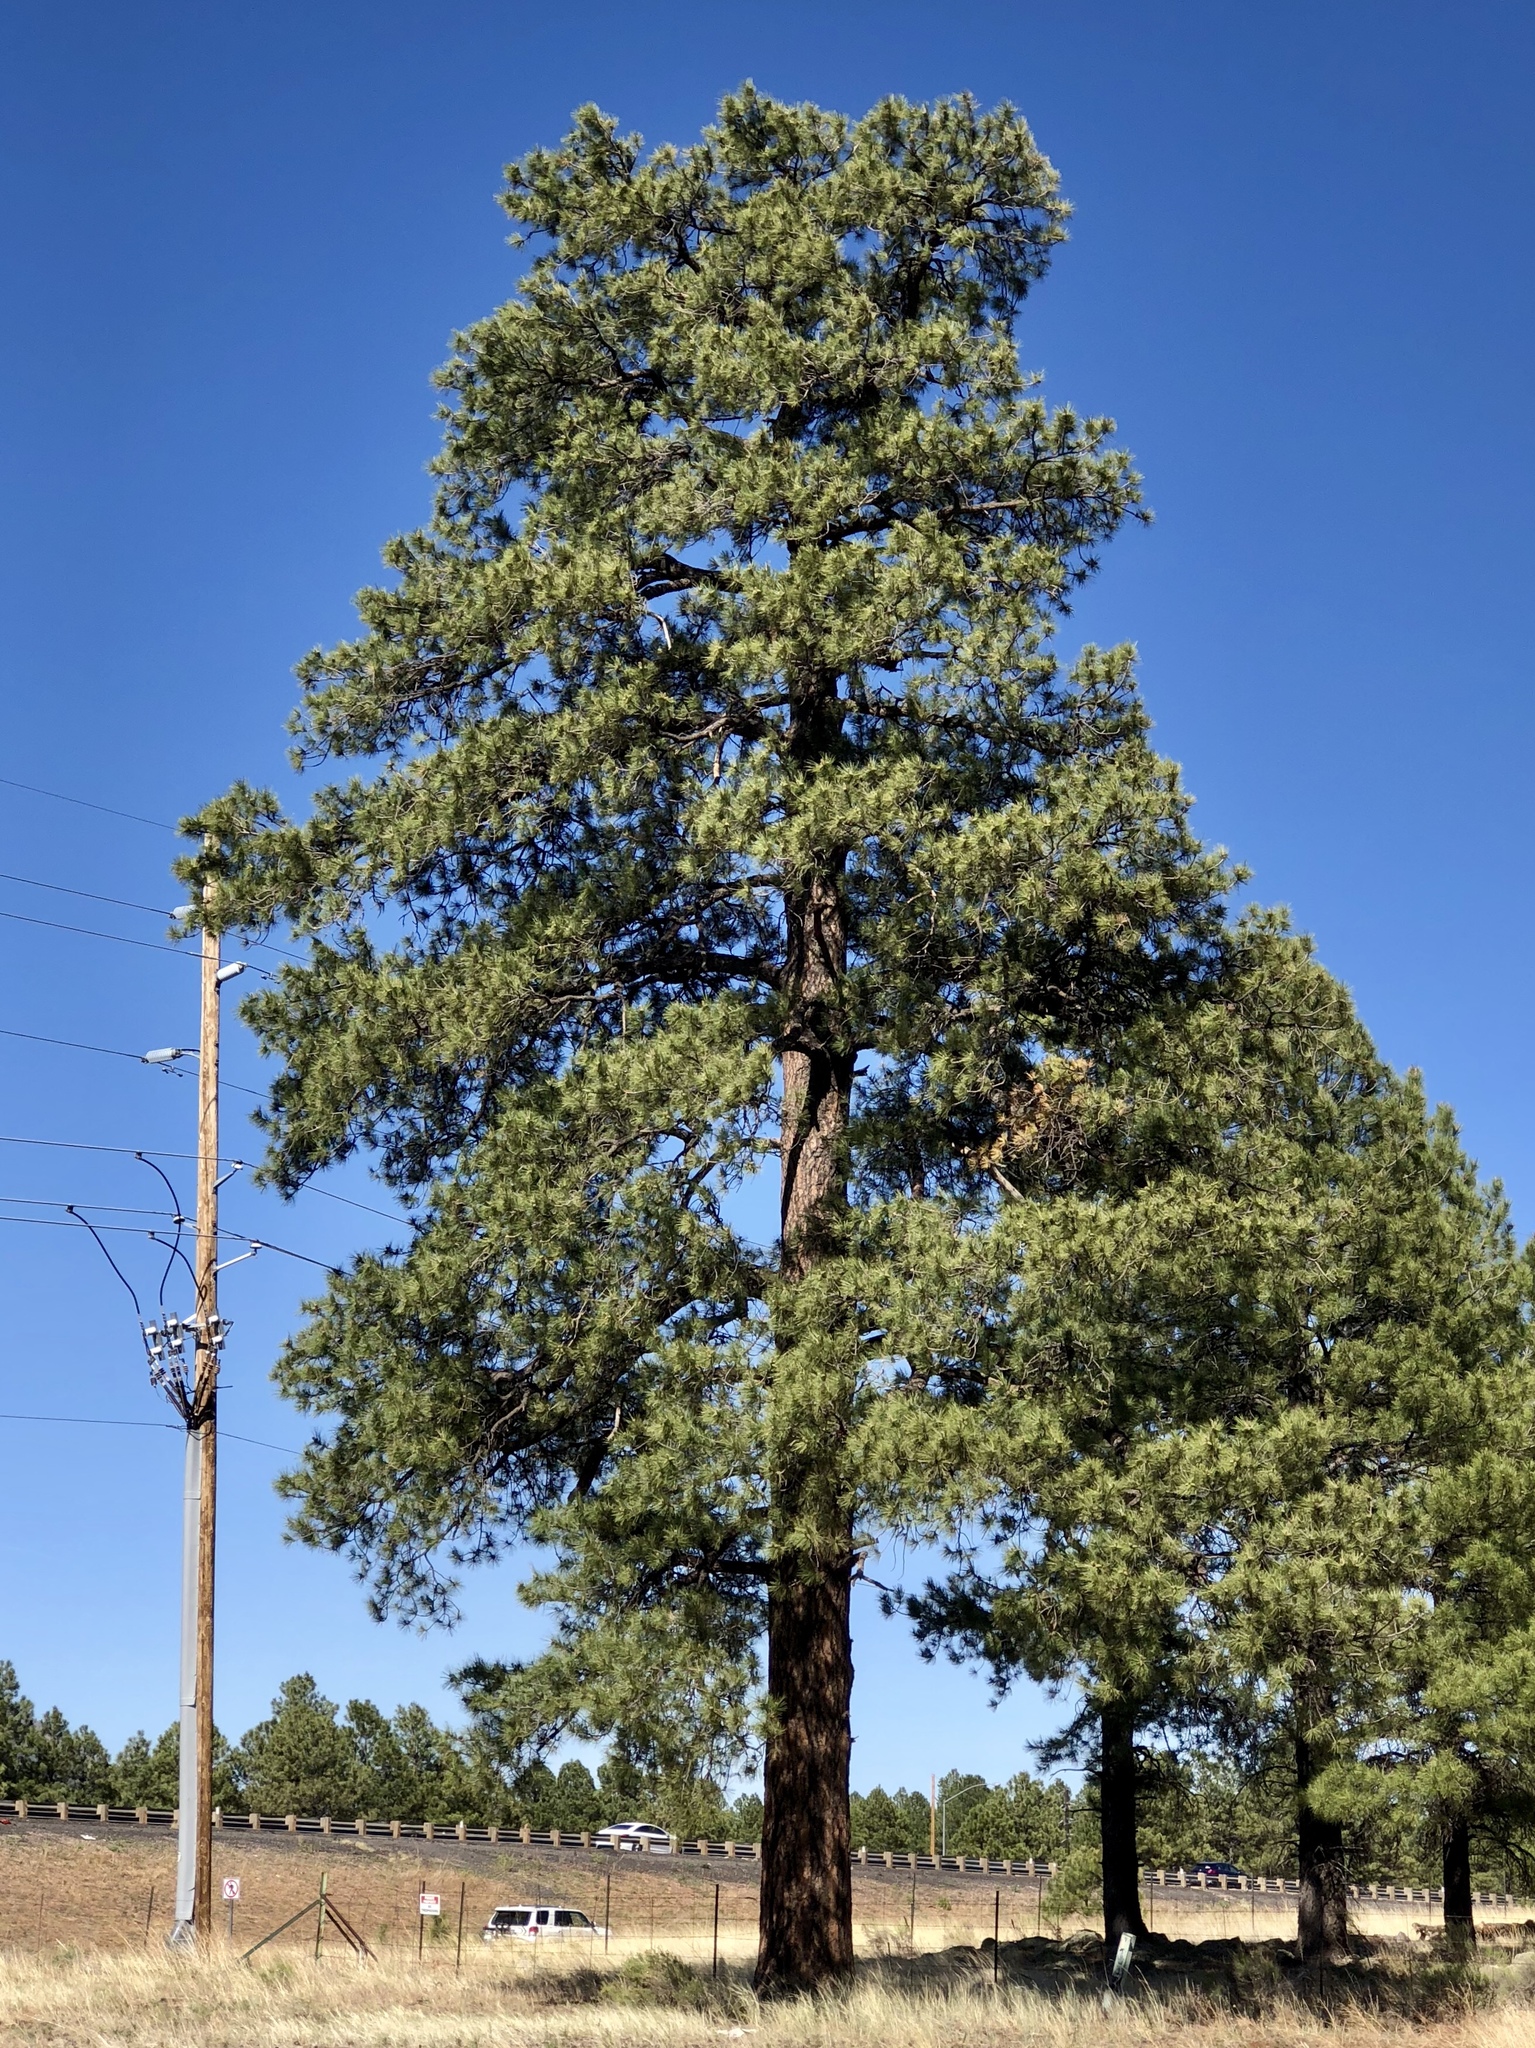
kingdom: Plantae
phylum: Tracheophyta
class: Pinopsida
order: Pinales
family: Pinaceae
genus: Pinus
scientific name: Pinus ponderosa
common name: Western yellow-pine
